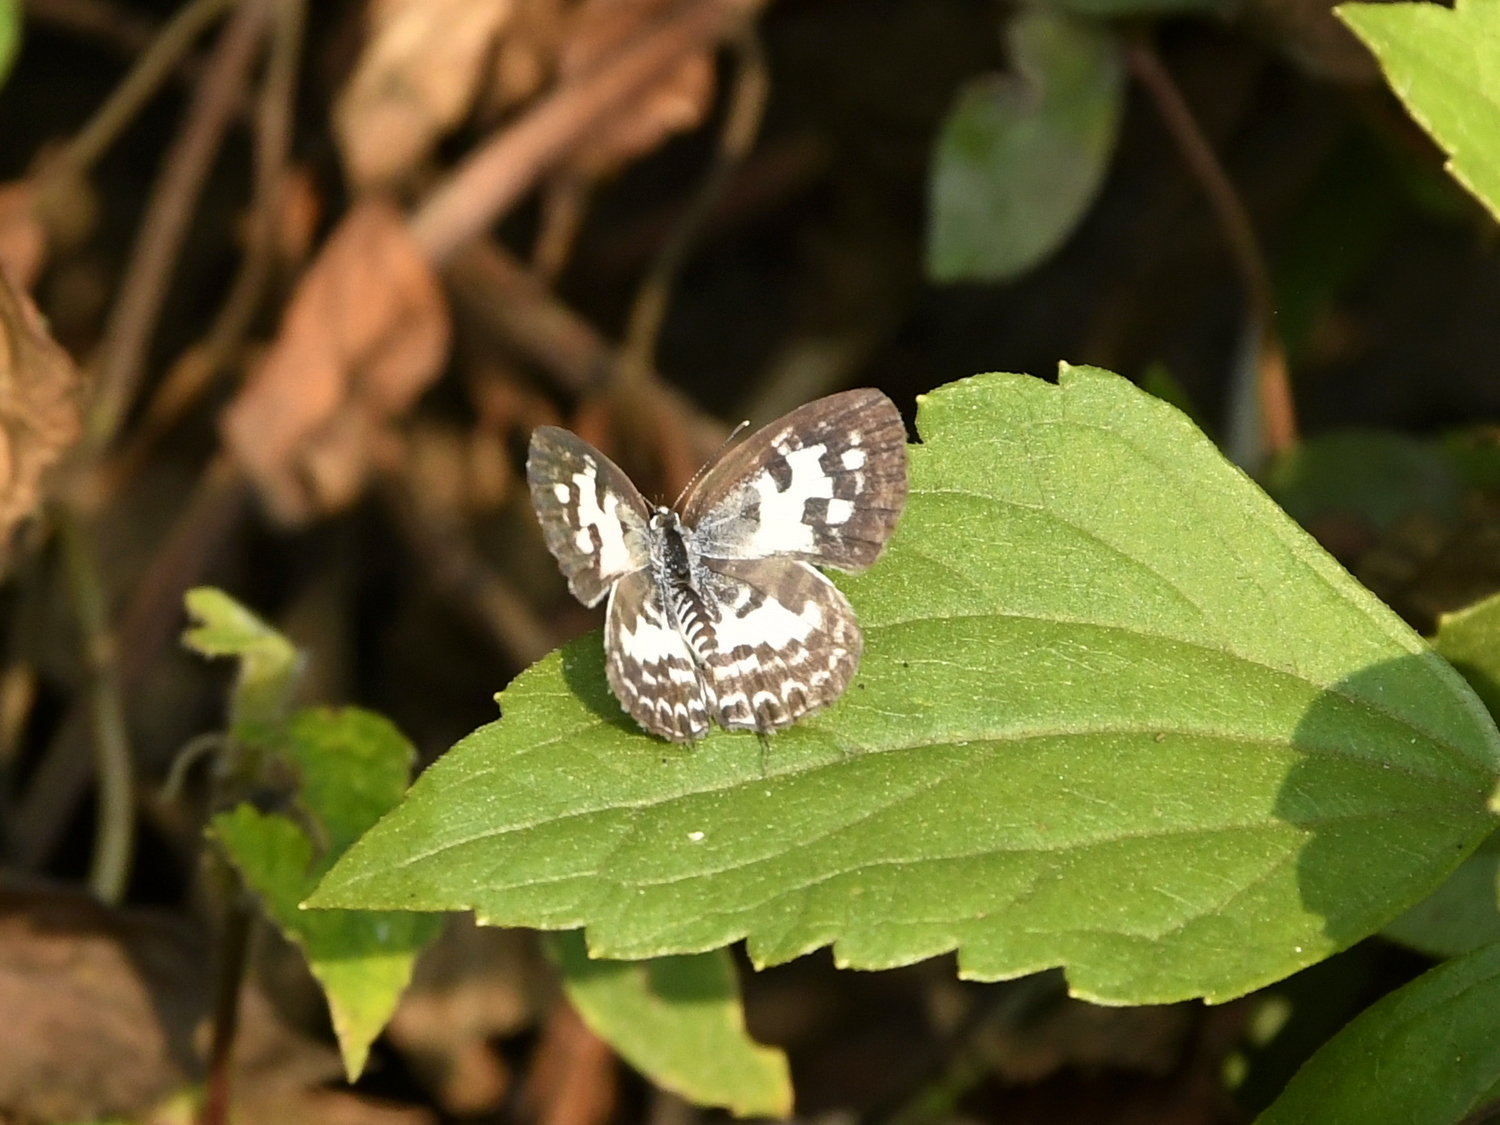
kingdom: Animalia
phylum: Arthropoda
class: Insecta
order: Lepidoptera
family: Lycaenidae
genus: Castalius
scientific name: Castalius rosimon
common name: Common pierrot
